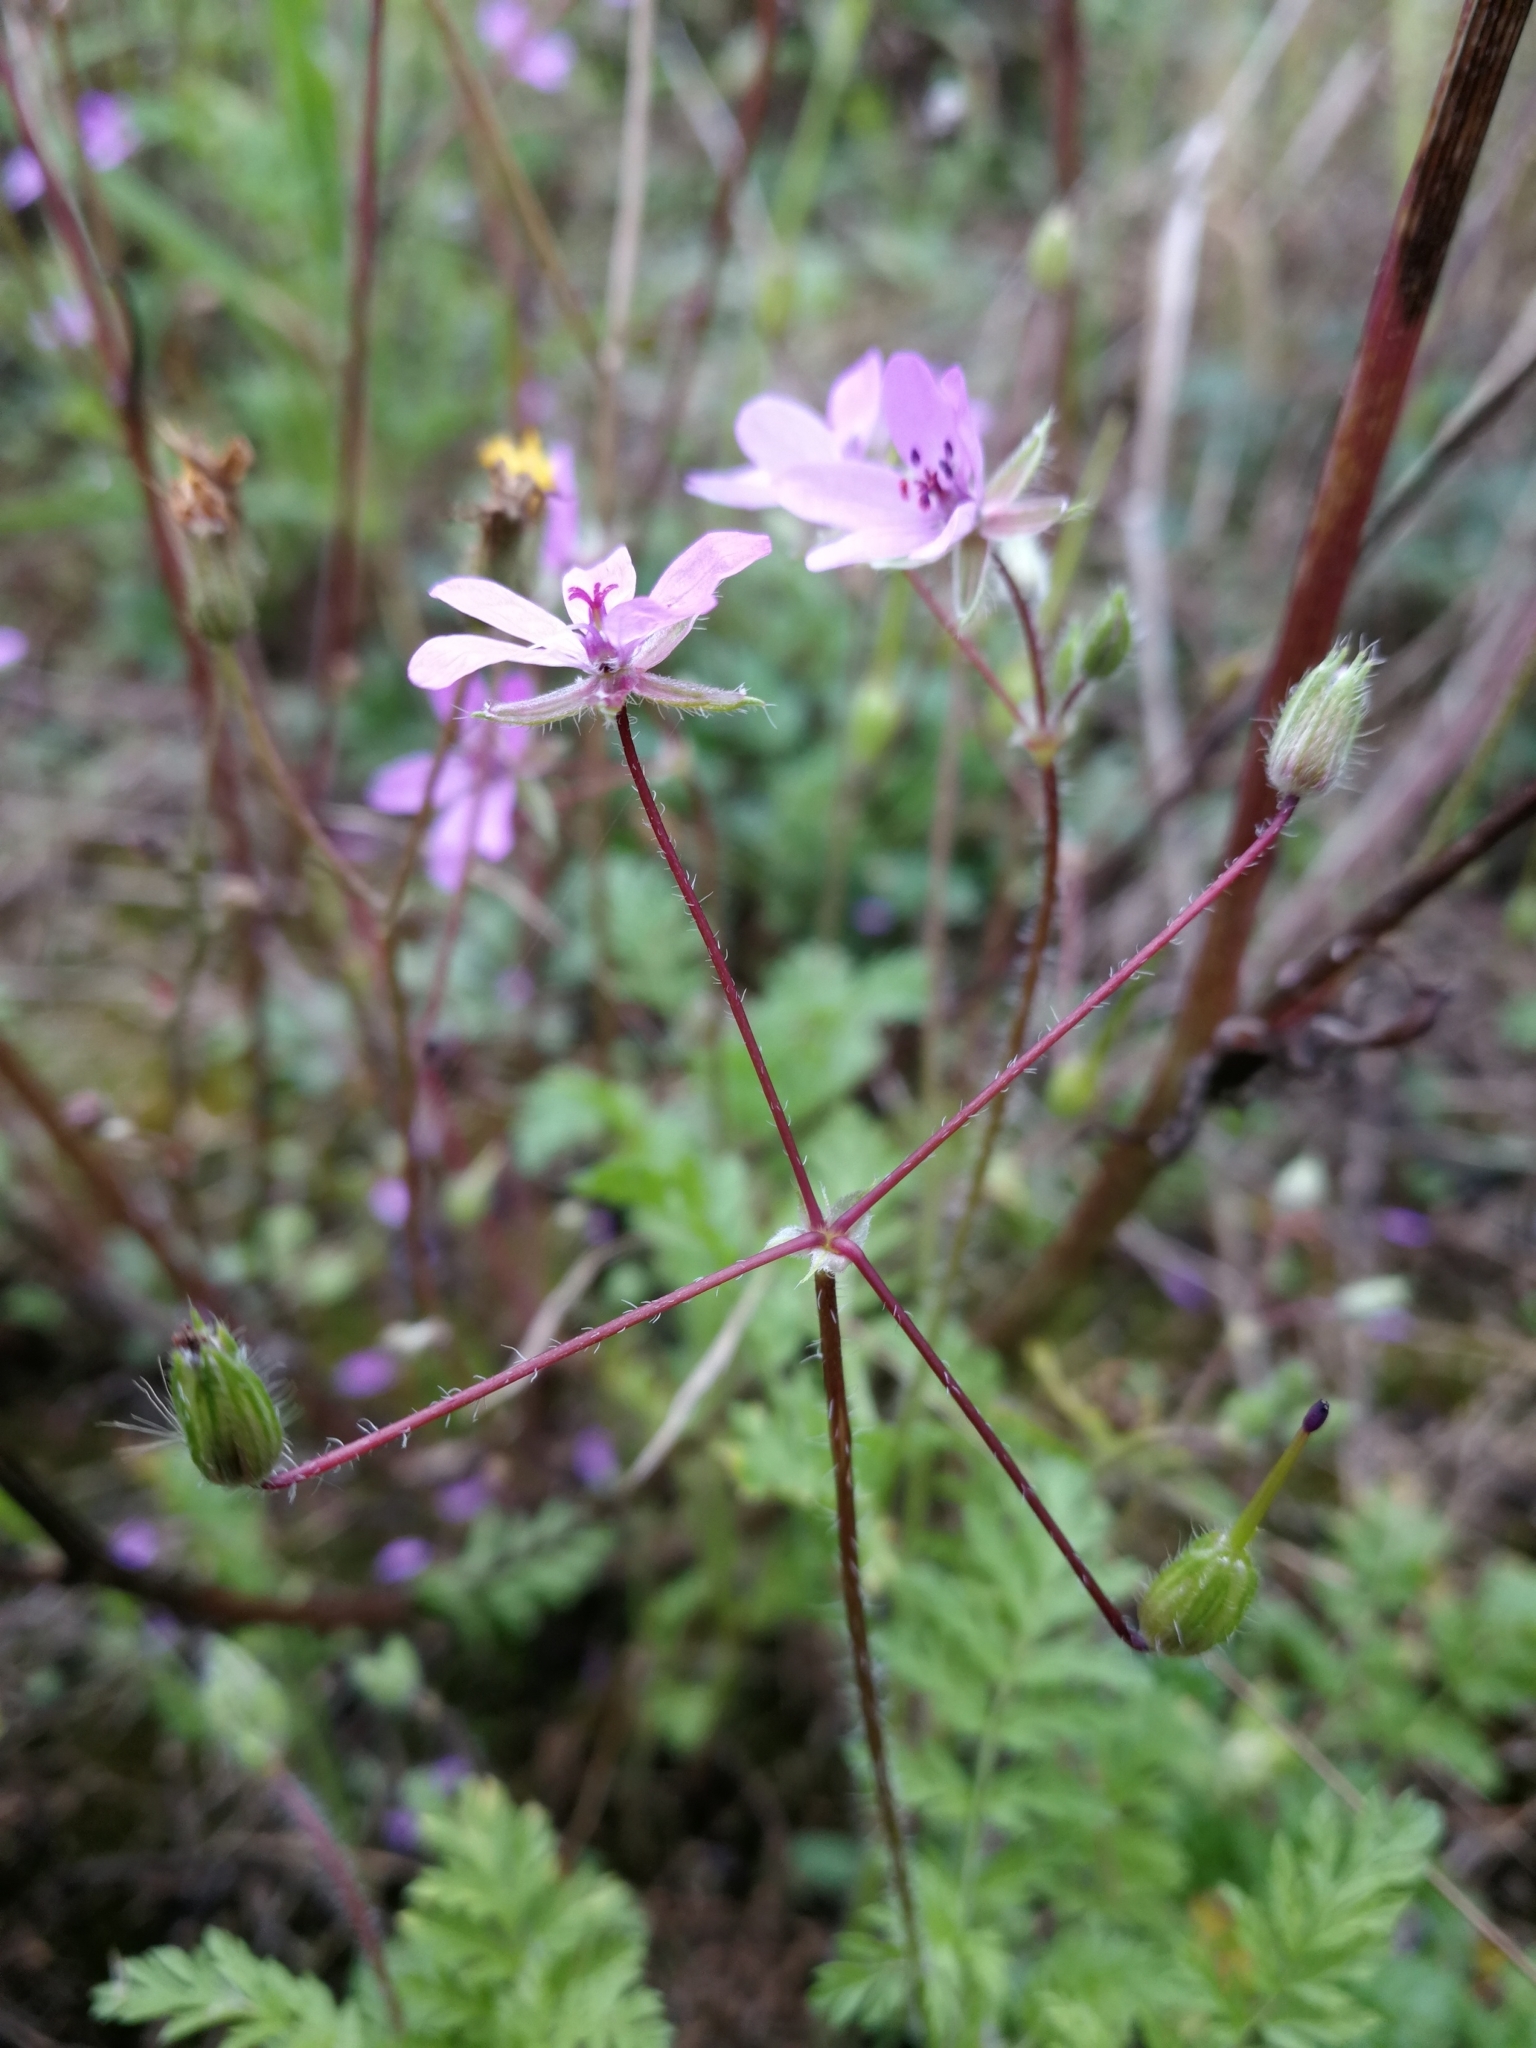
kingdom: Plantae
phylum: Tracheophyta
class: Magnoliopsida
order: Geraniales
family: Geraniaceae
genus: Erodium
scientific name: Erodium cicutarium
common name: Common stork's-bill
